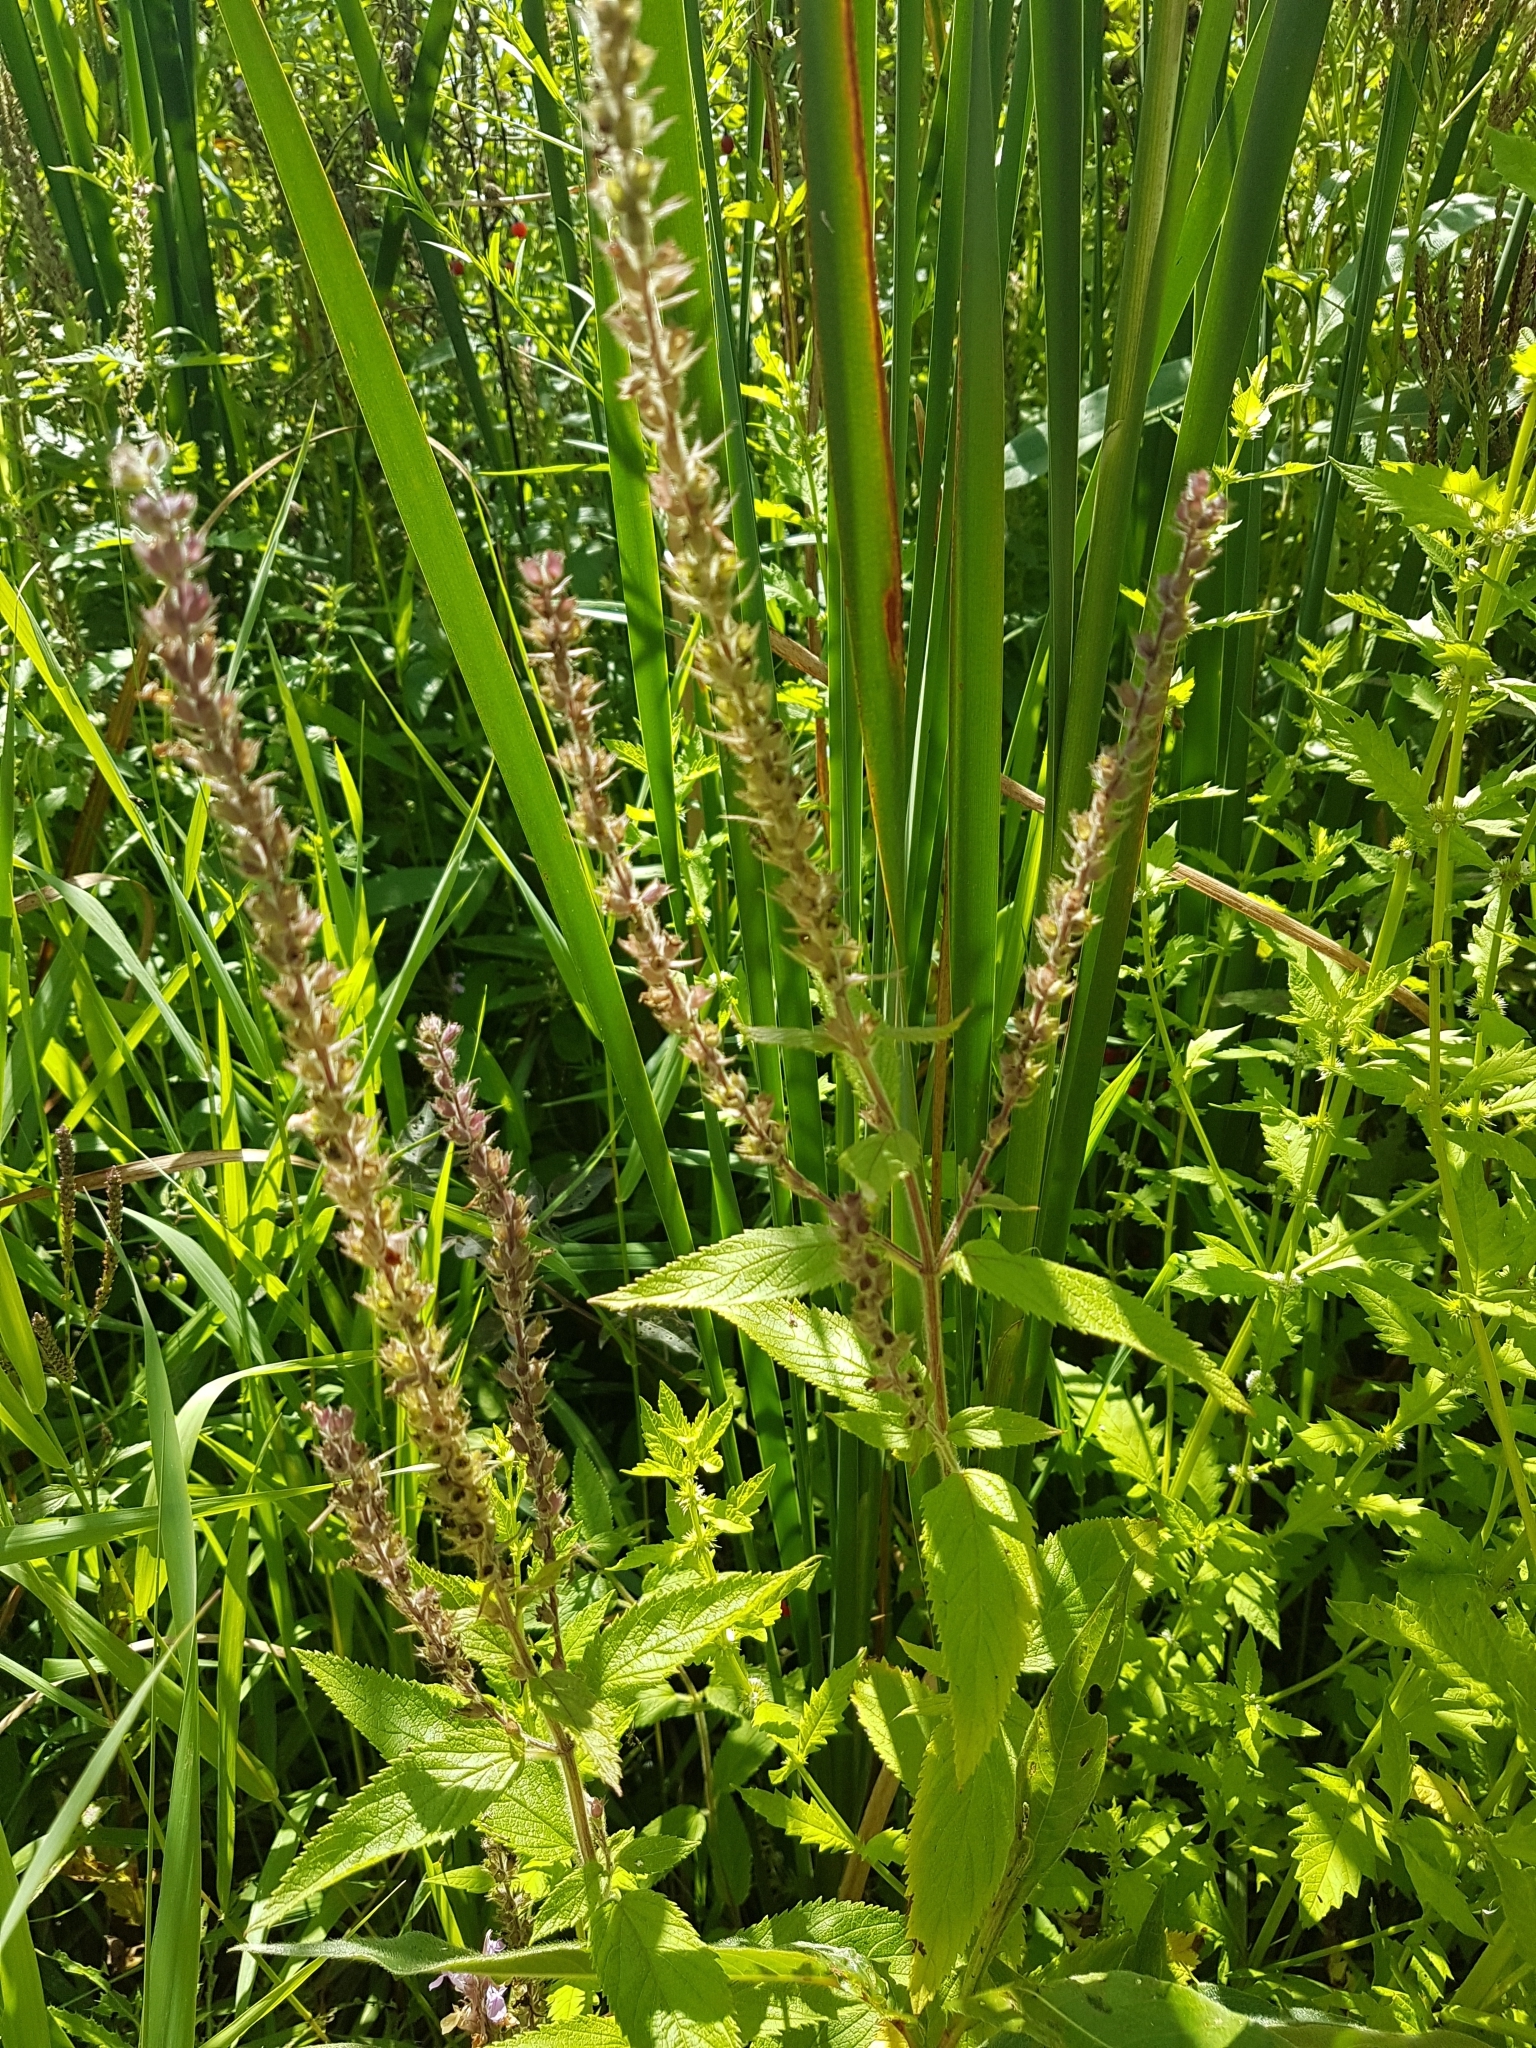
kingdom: Plantae
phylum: Tracheophyta
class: Magnoliopsida
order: Lamiales
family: Lamiaceae
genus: Teucrium
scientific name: Teucrium canadense
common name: American germander
